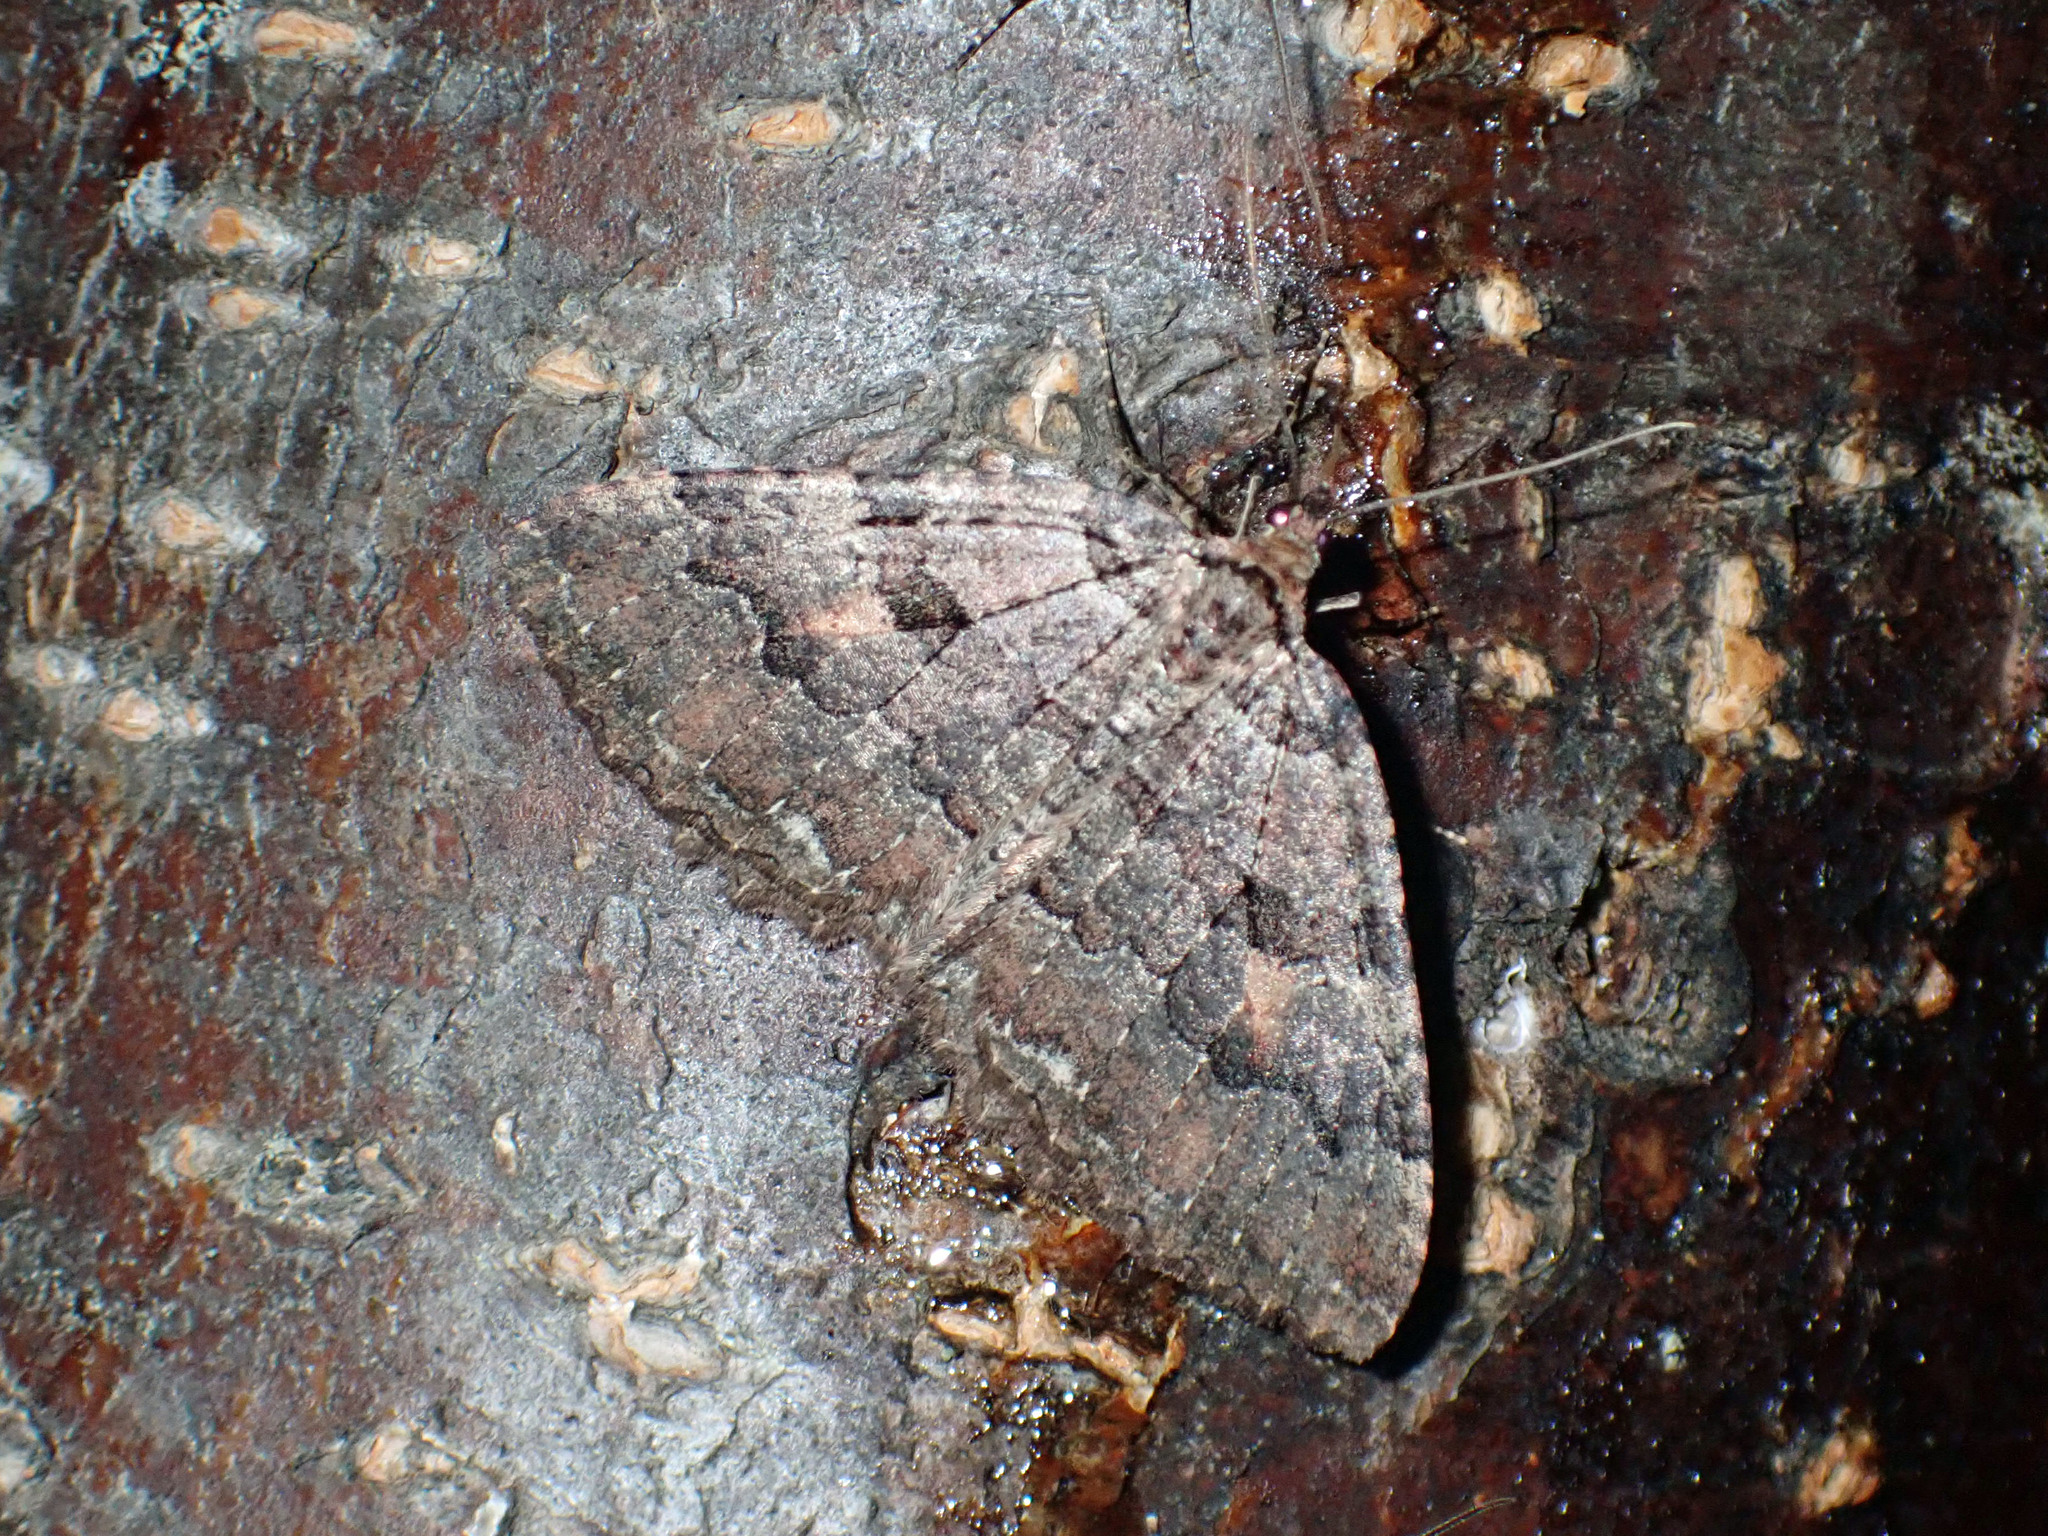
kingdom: Animalia
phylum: Arthropoda
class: Insecta
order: Lepidoptera
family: Geometridae
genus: Triphosa
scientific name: Triphosa haesitata
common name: Tissue moth
